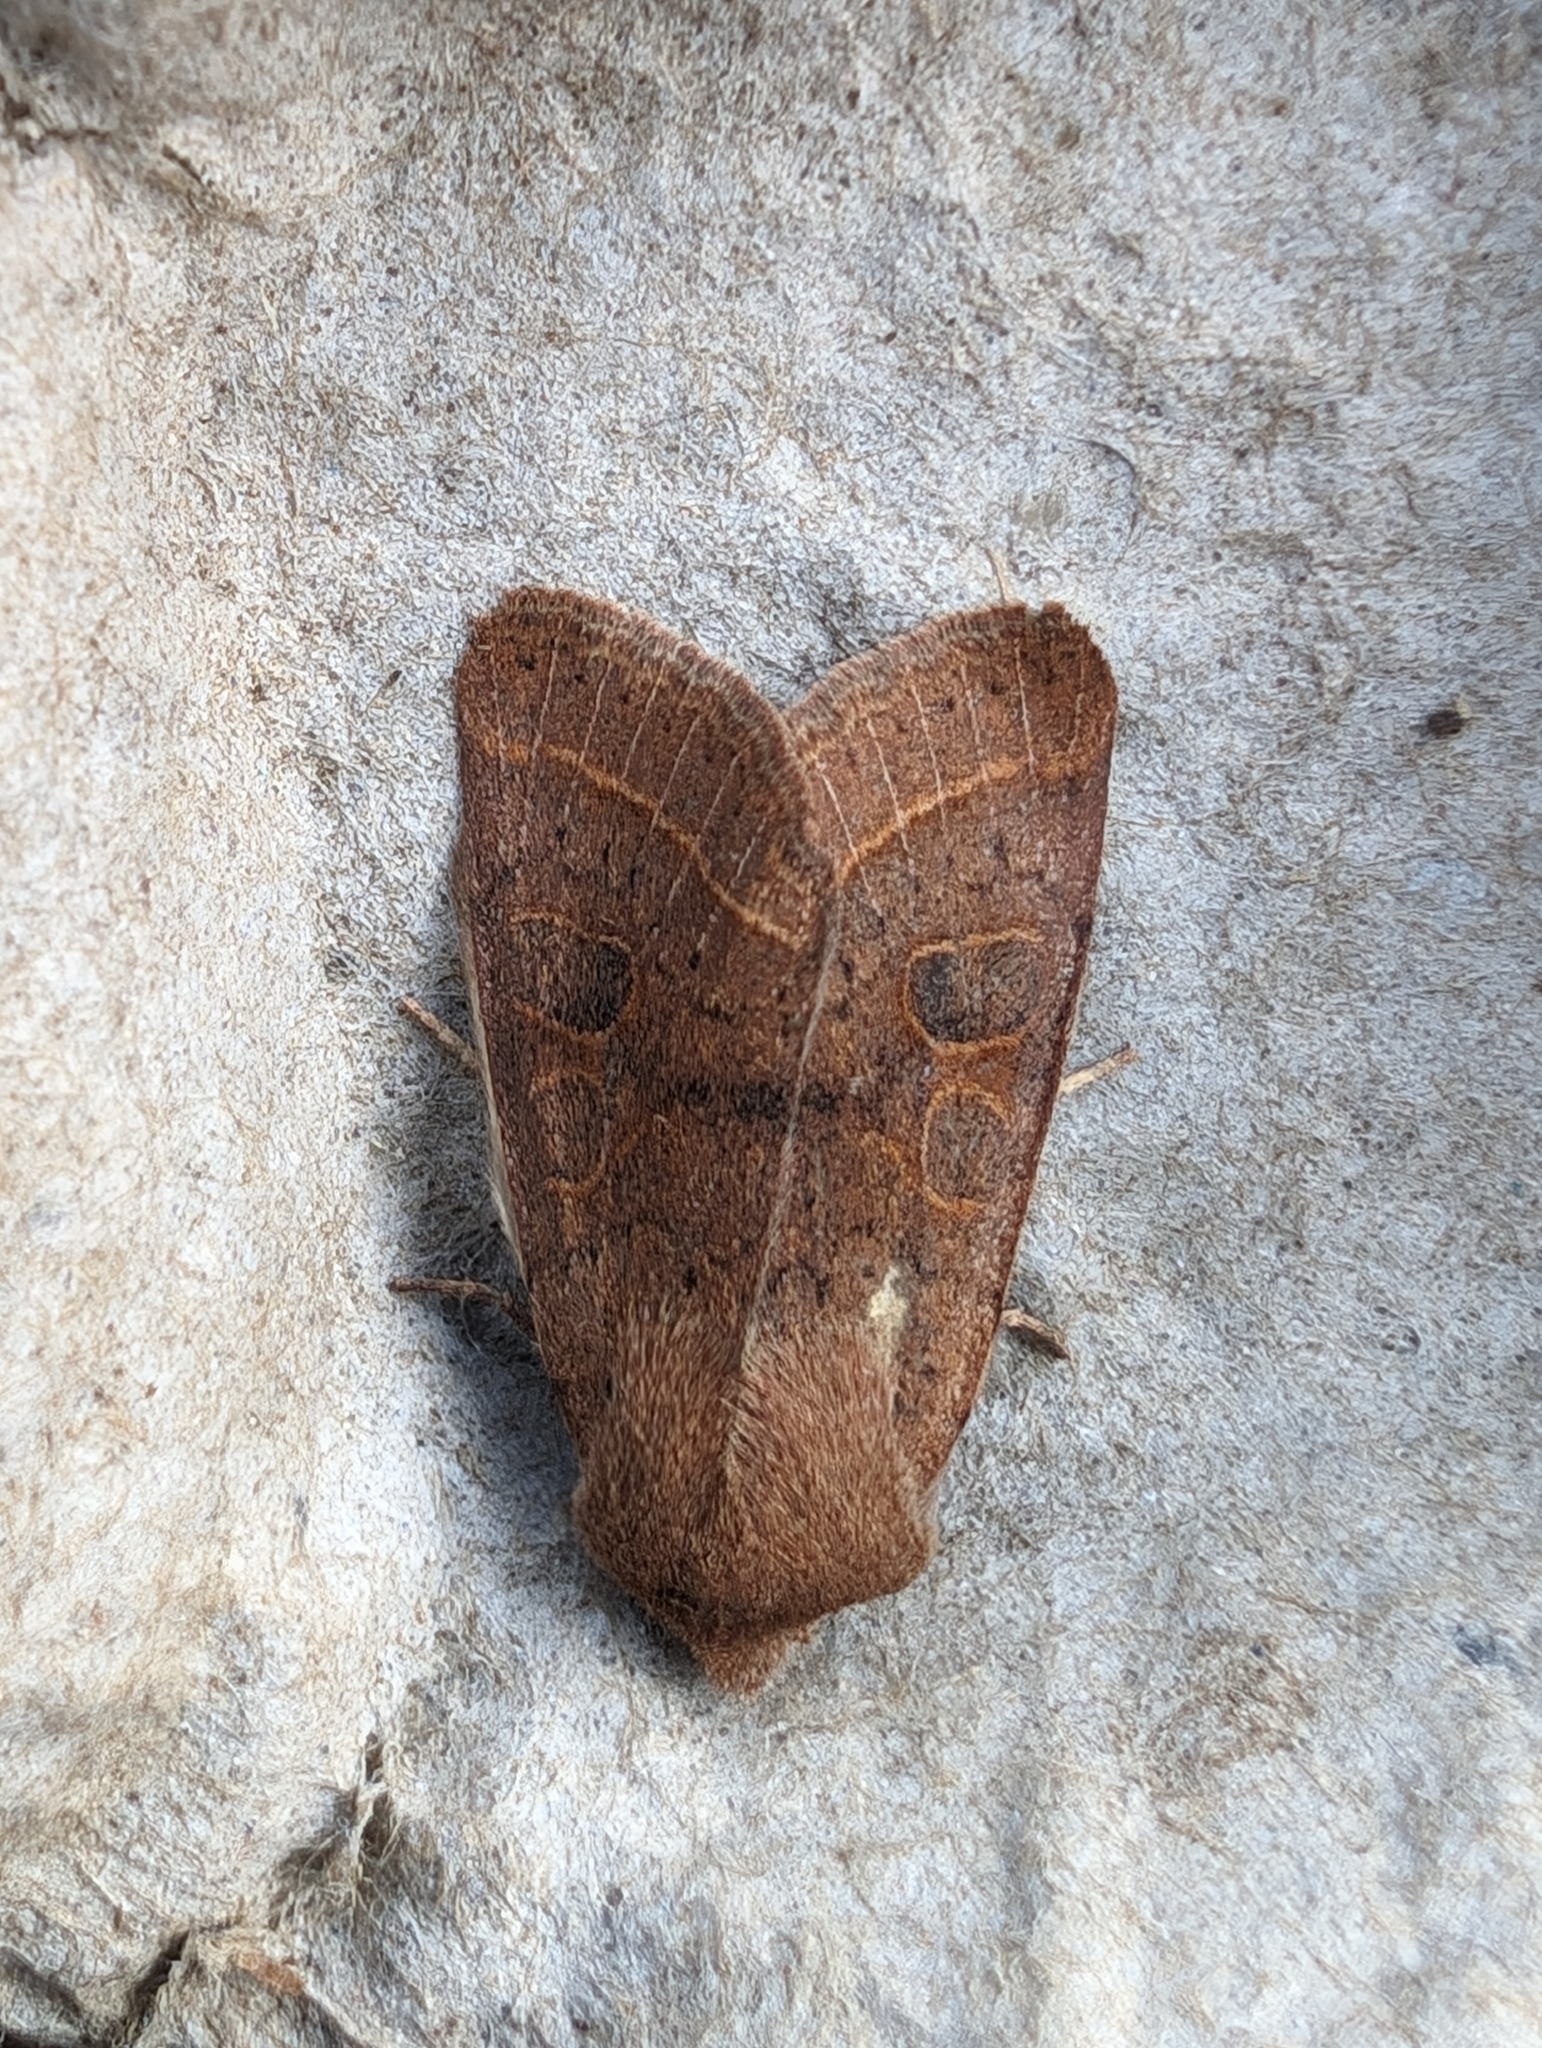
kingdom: Animalia
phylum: Arthropoda
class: Insecta
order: Lepidoptera
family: Noctuidae
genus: Orthosia
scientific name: Orthosia cerasi
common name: Common quaker
